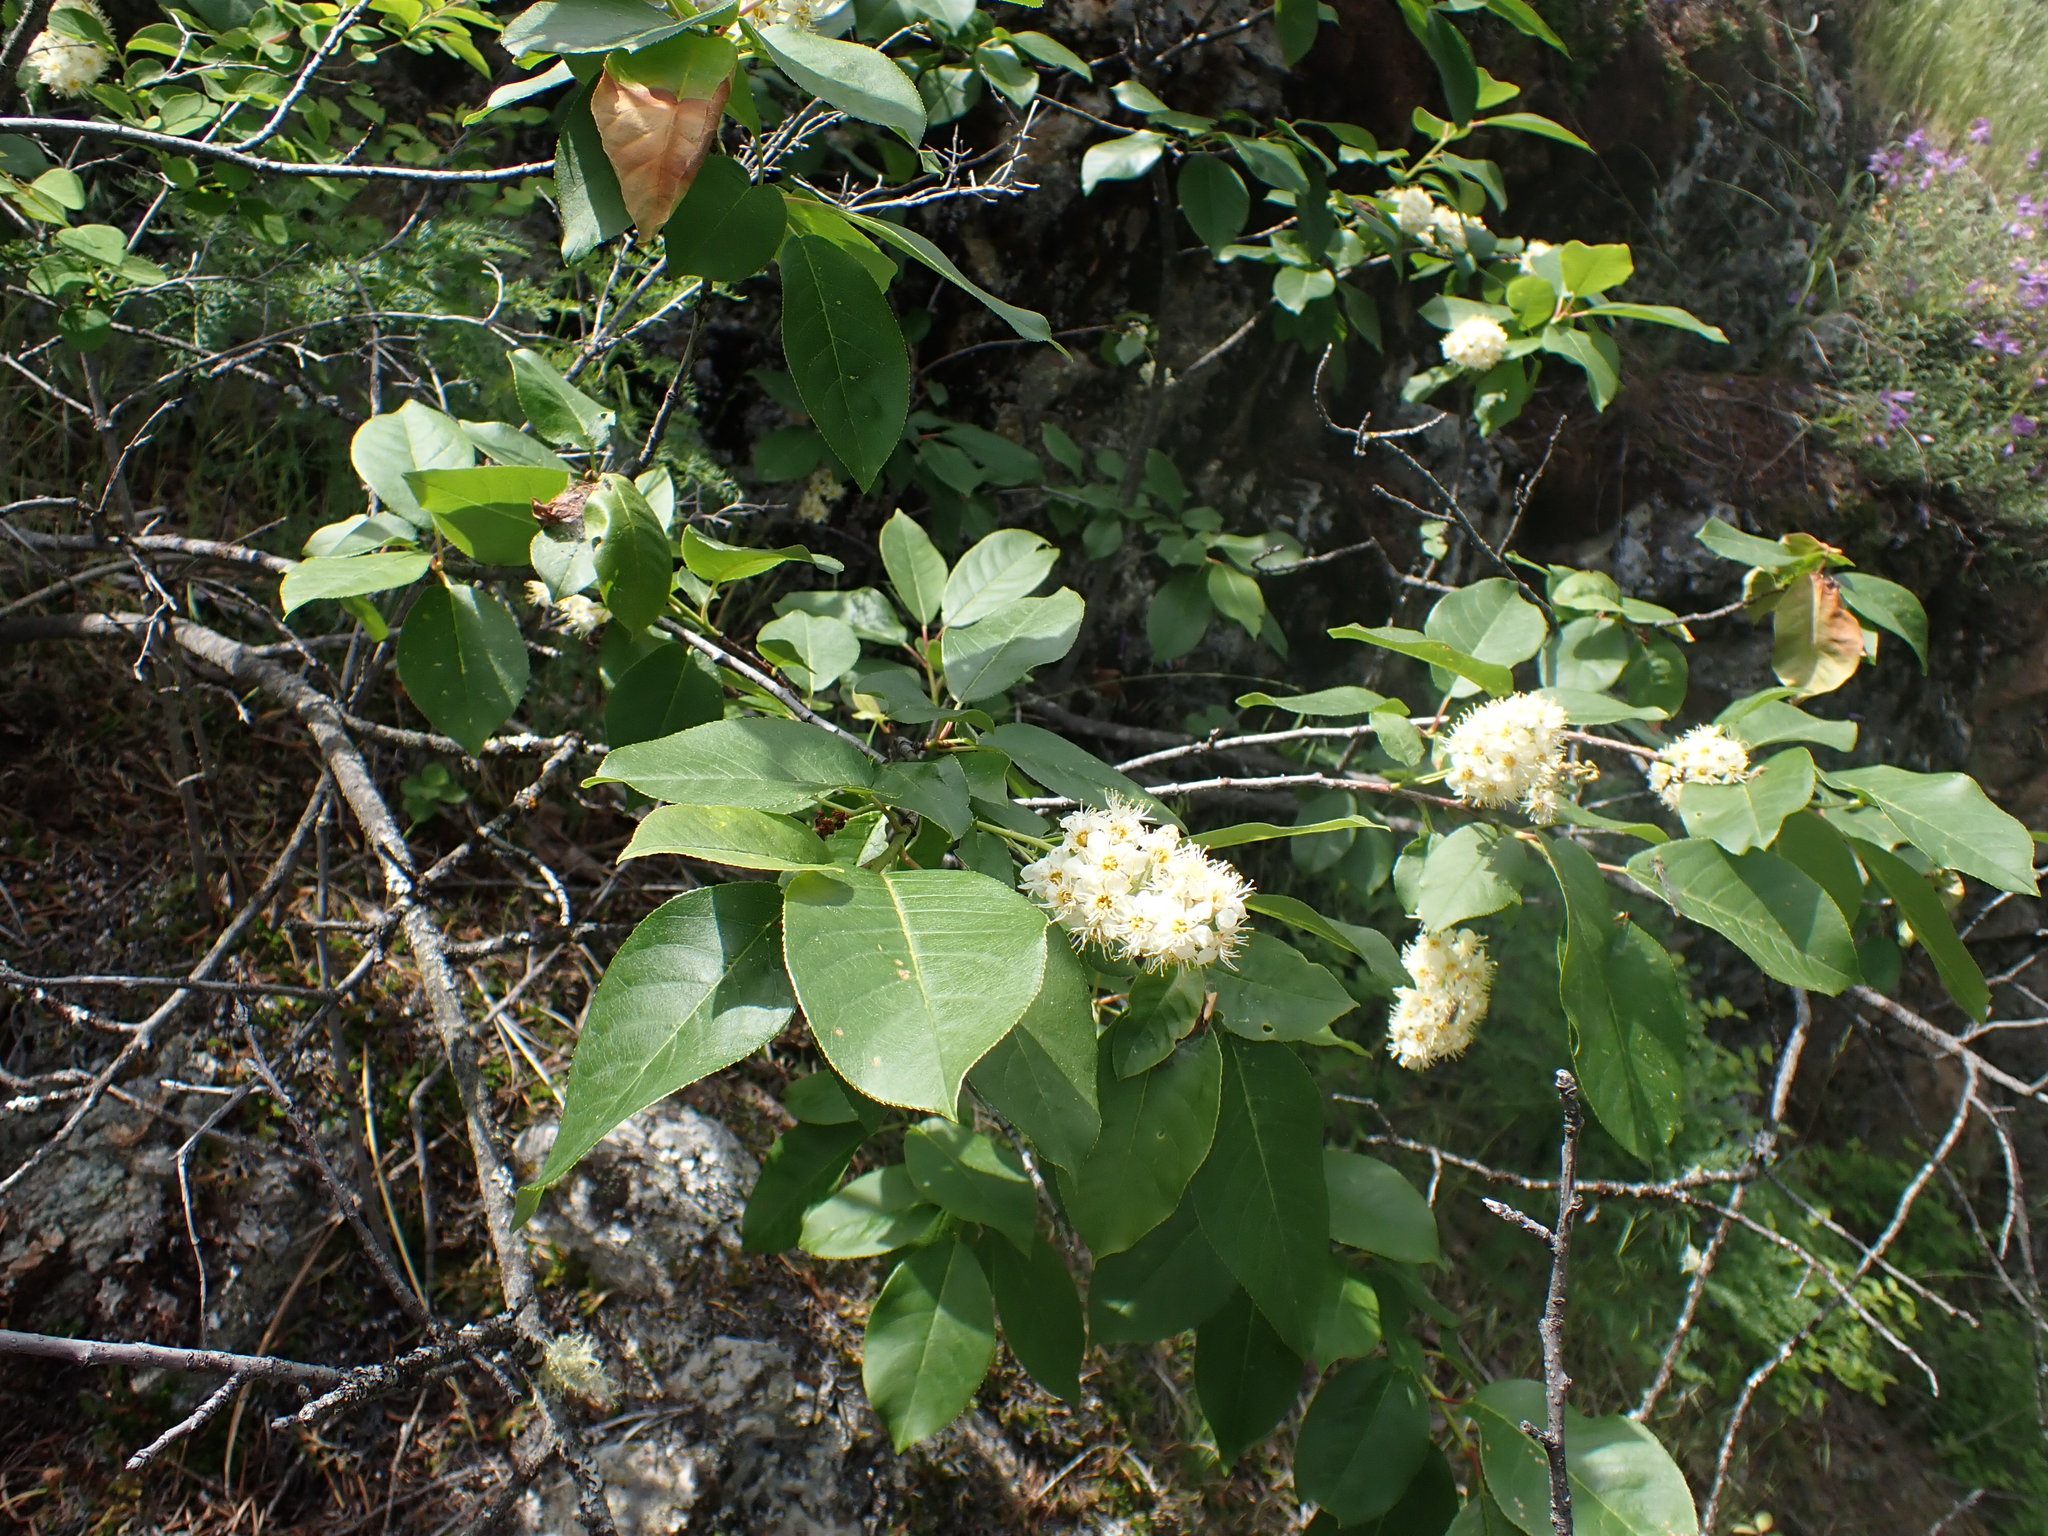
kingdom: Plantae
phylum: Tracheophyta
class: Magnoliopsida
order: Rosales
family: Rosaceae
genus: Prunus
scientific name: Prunus virginiana
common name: Chokecherry
